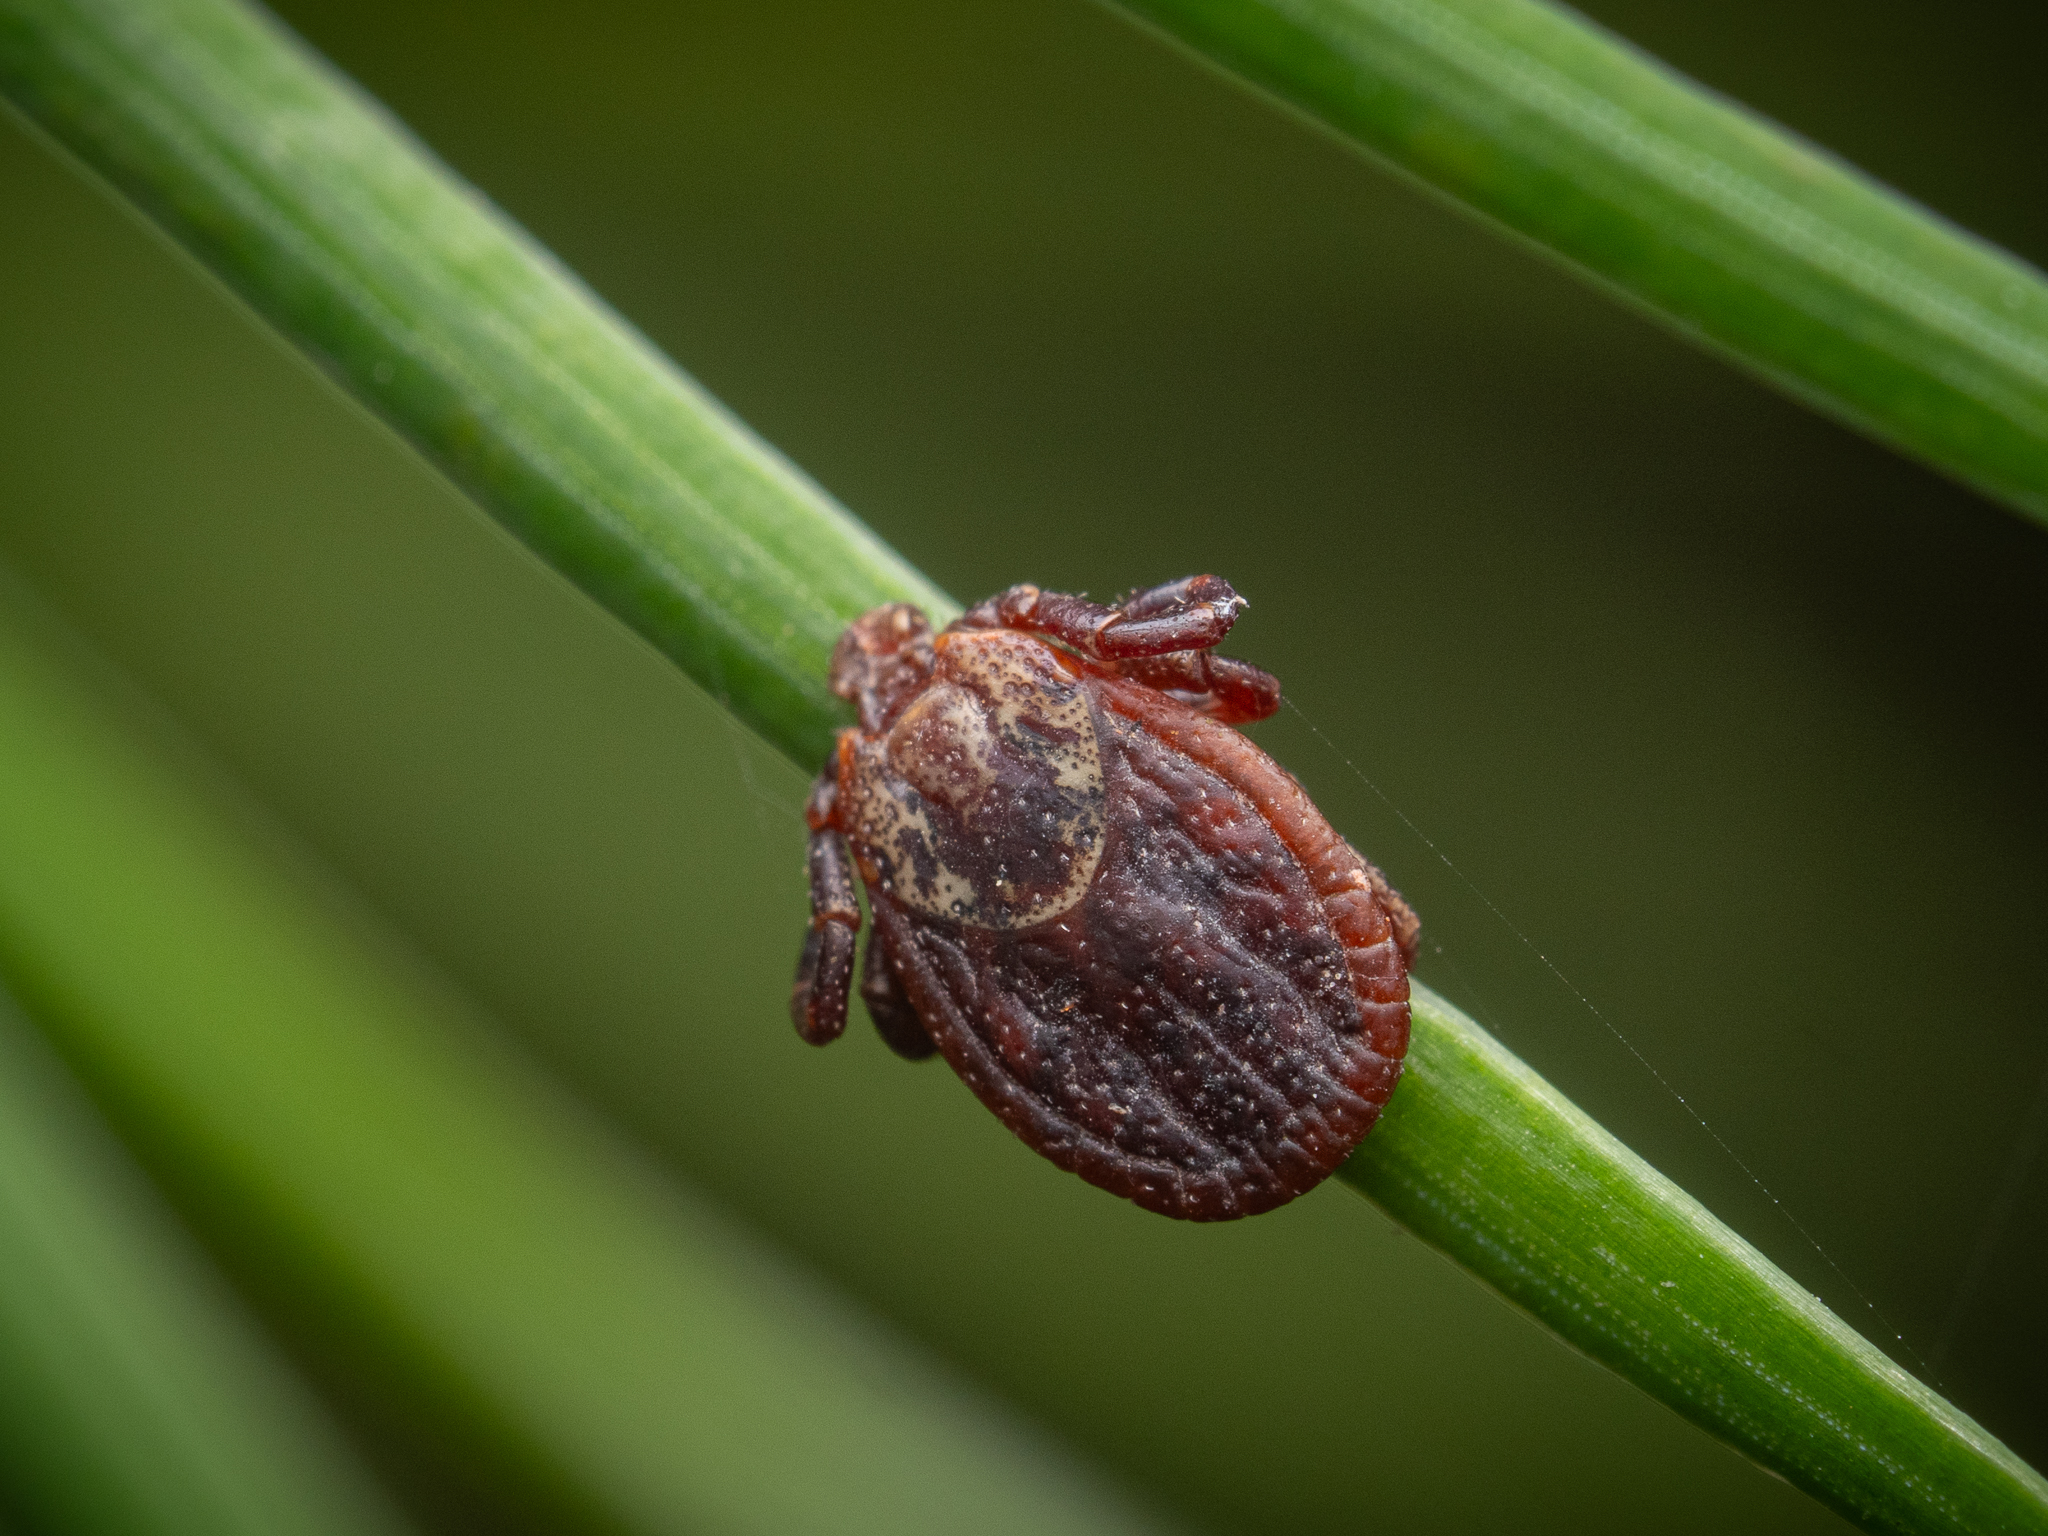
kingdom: Animalia
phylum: Arthropoda
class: Arachnida
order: Ixodida
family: Ixodidae
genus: Dermacentor
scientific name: Dermacentor reticulatus
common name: Ornate cow tick
